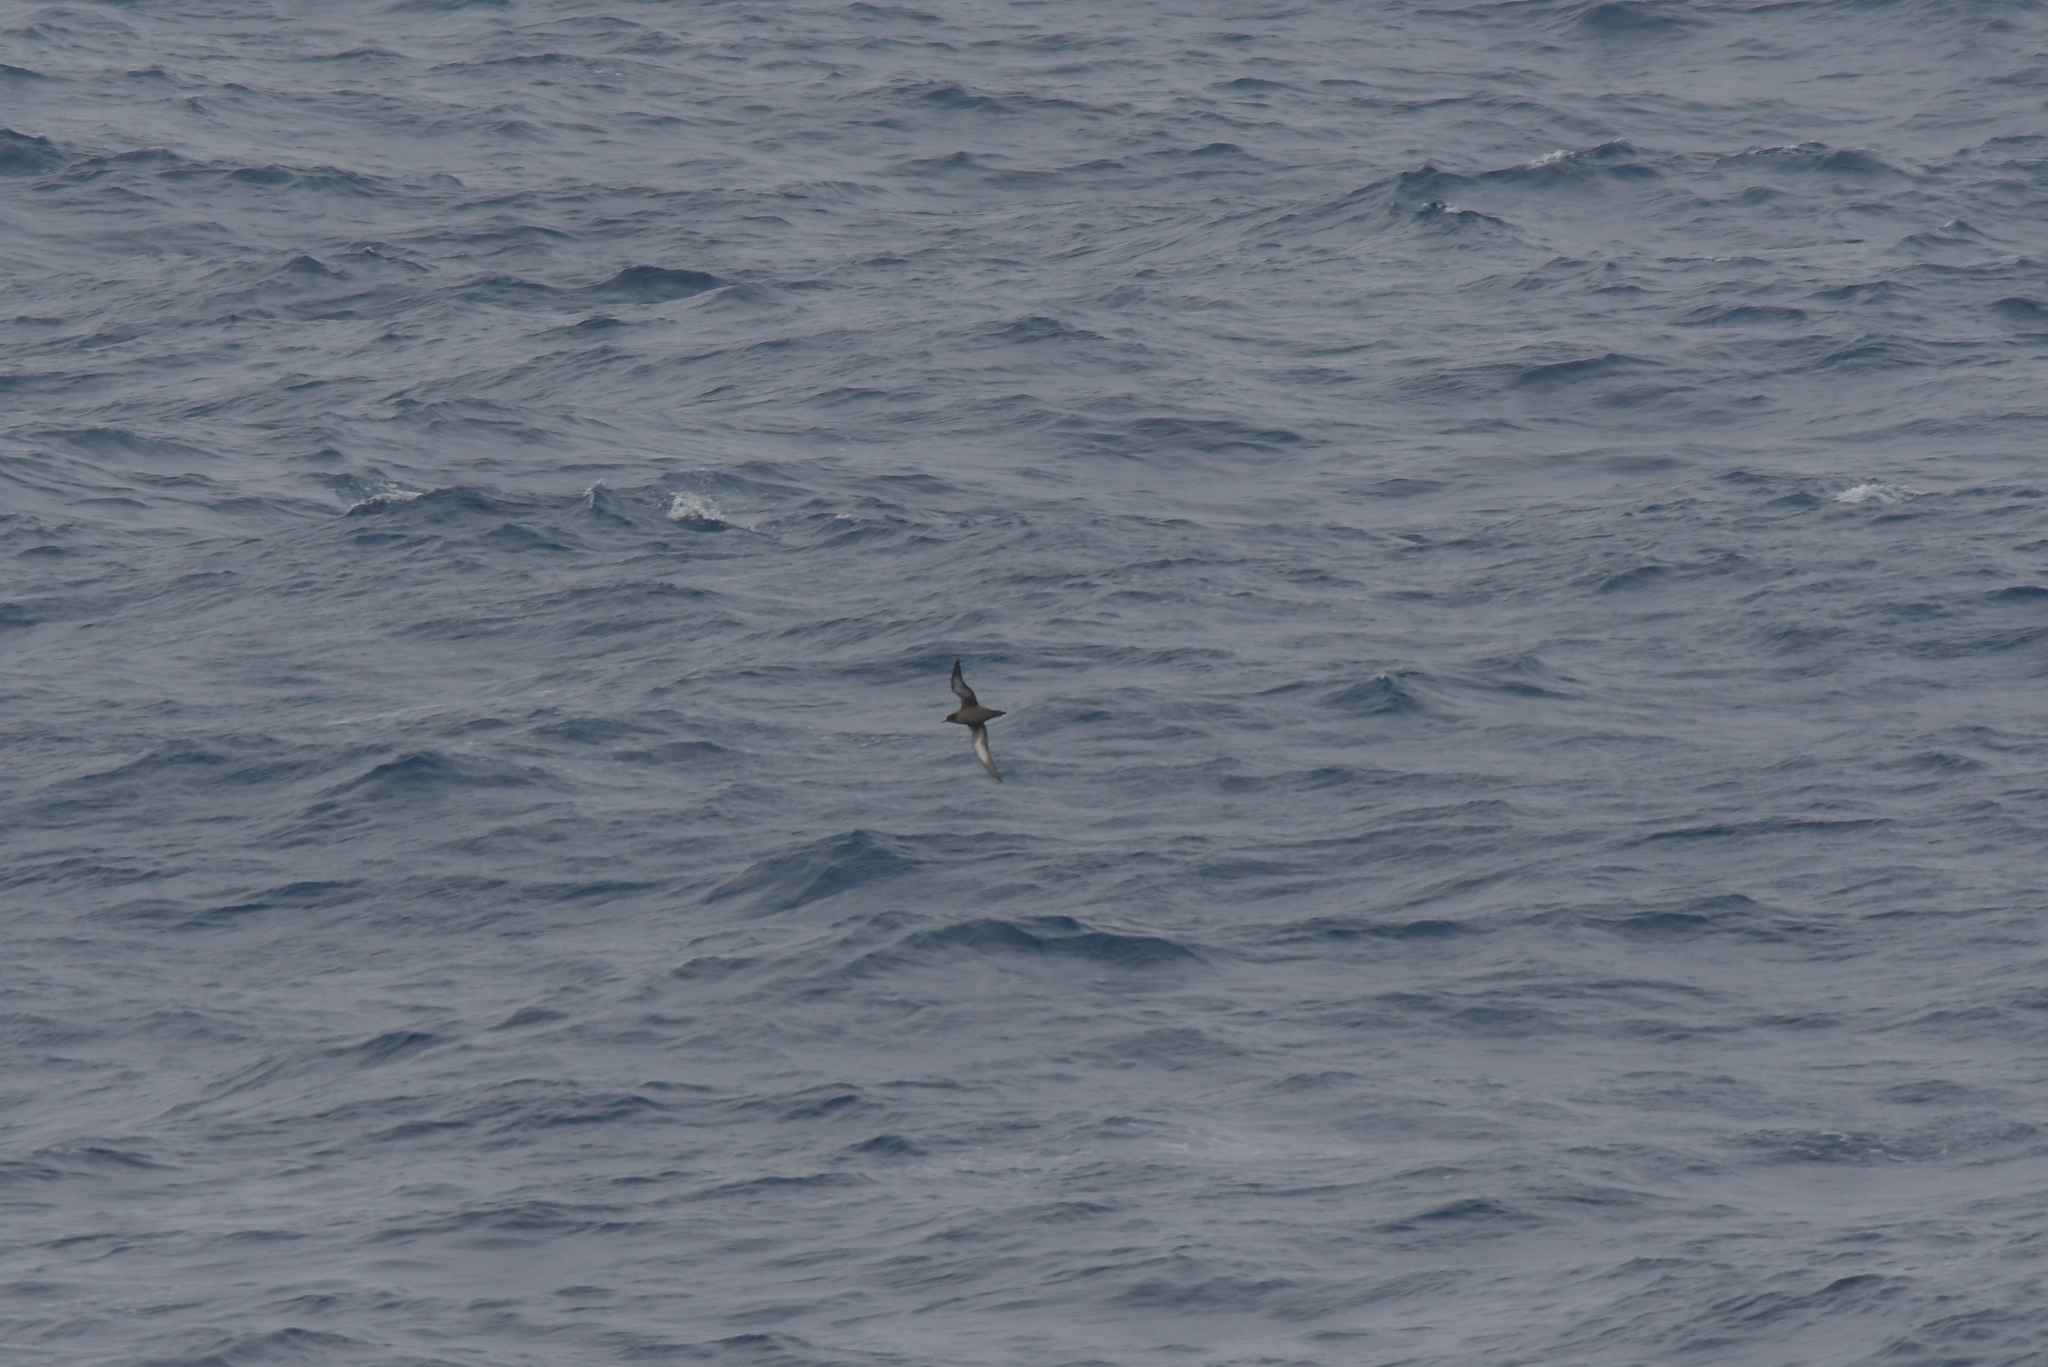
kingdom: Animalia
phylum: Chordata
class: Aves
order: Procellariiformes
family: Procellariidae
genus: Puffinus
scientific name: Puffinus griseus
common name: Sooty shearwater
